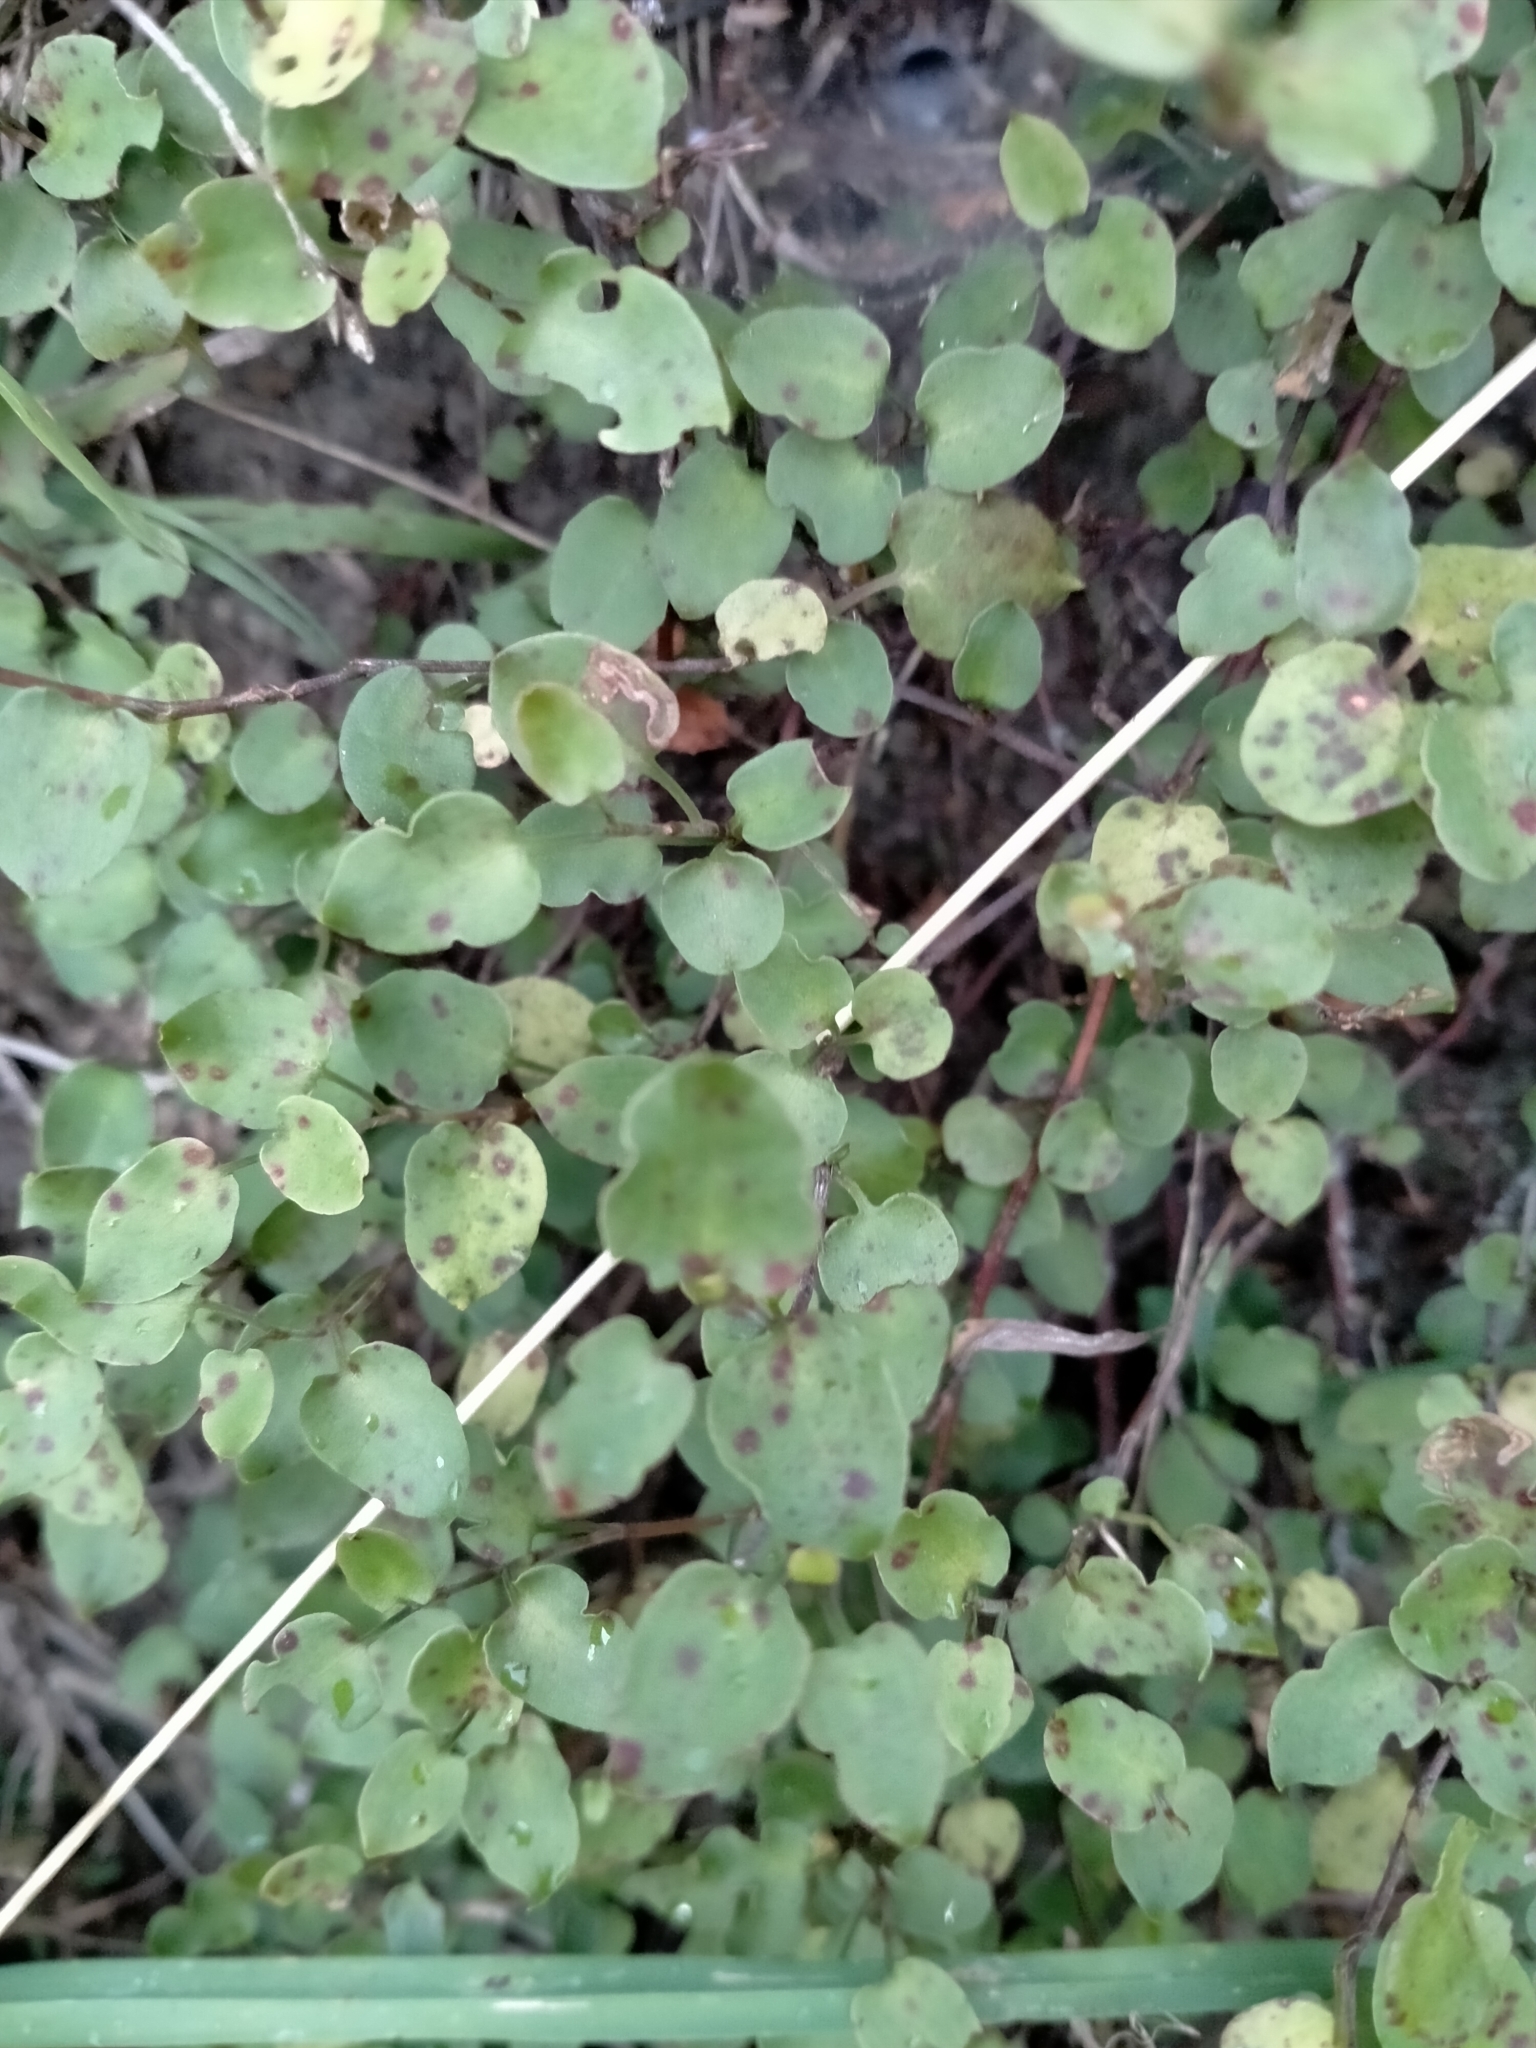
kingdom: Plantae
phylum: Tracheophyta
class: Magnoliopsida
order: Caryophyllales
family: Polygonaceae
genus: Muehlenbeckia
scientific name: Muehlenbeckia complexa
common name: Wireplant
